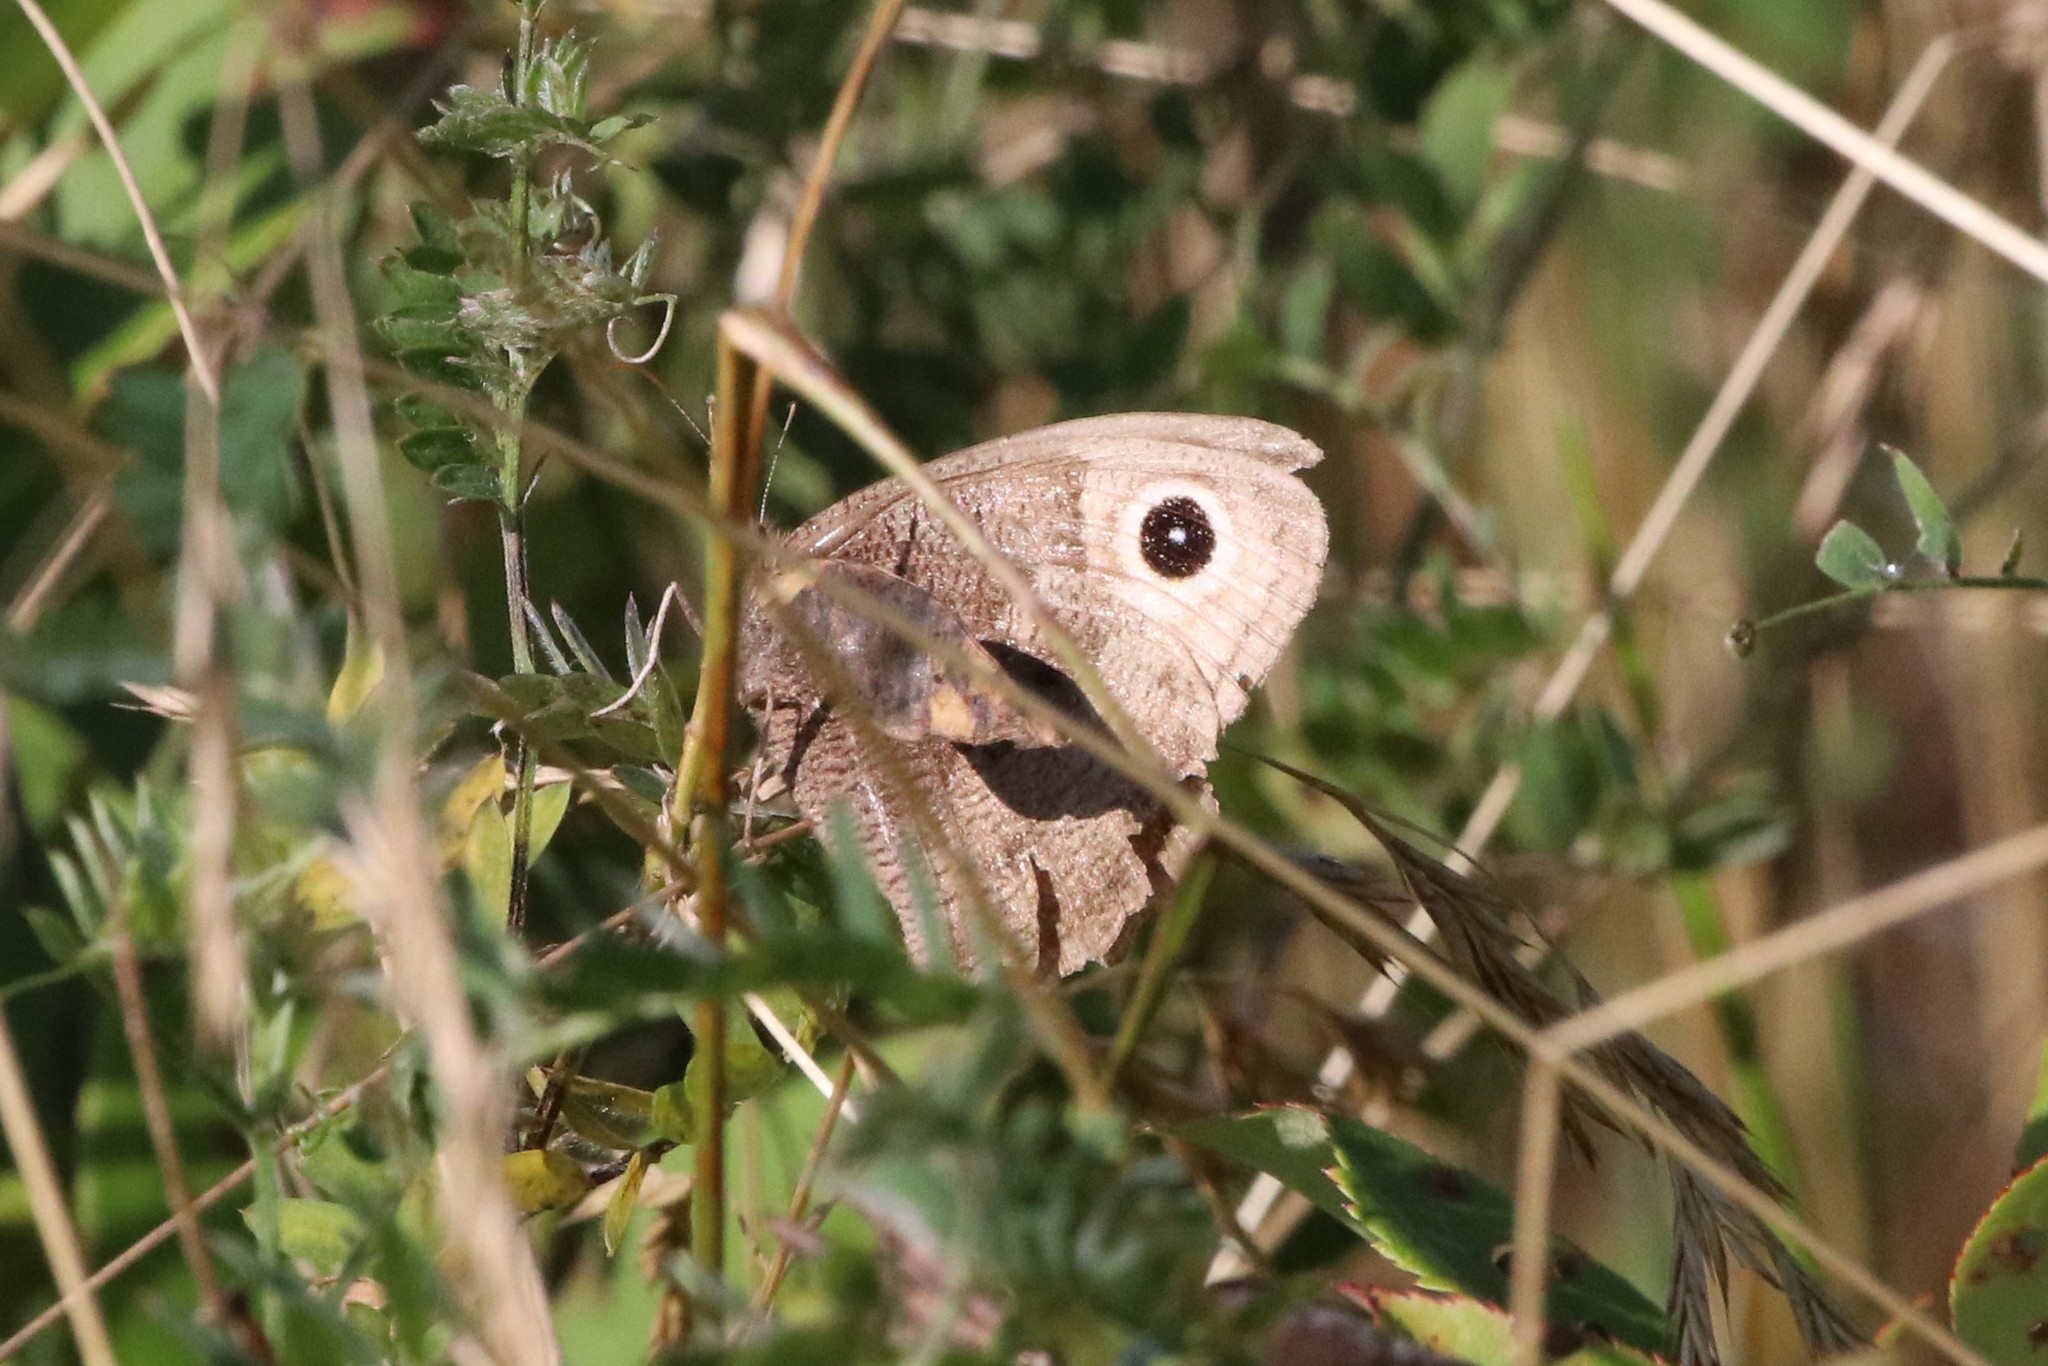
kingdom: Animalia
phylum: Arthropoda
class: Insecta
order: Lepidoptera
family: Nymphalidae
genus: Cercyonis
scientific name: Cercyonis pegala
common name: Common wood-nymph
